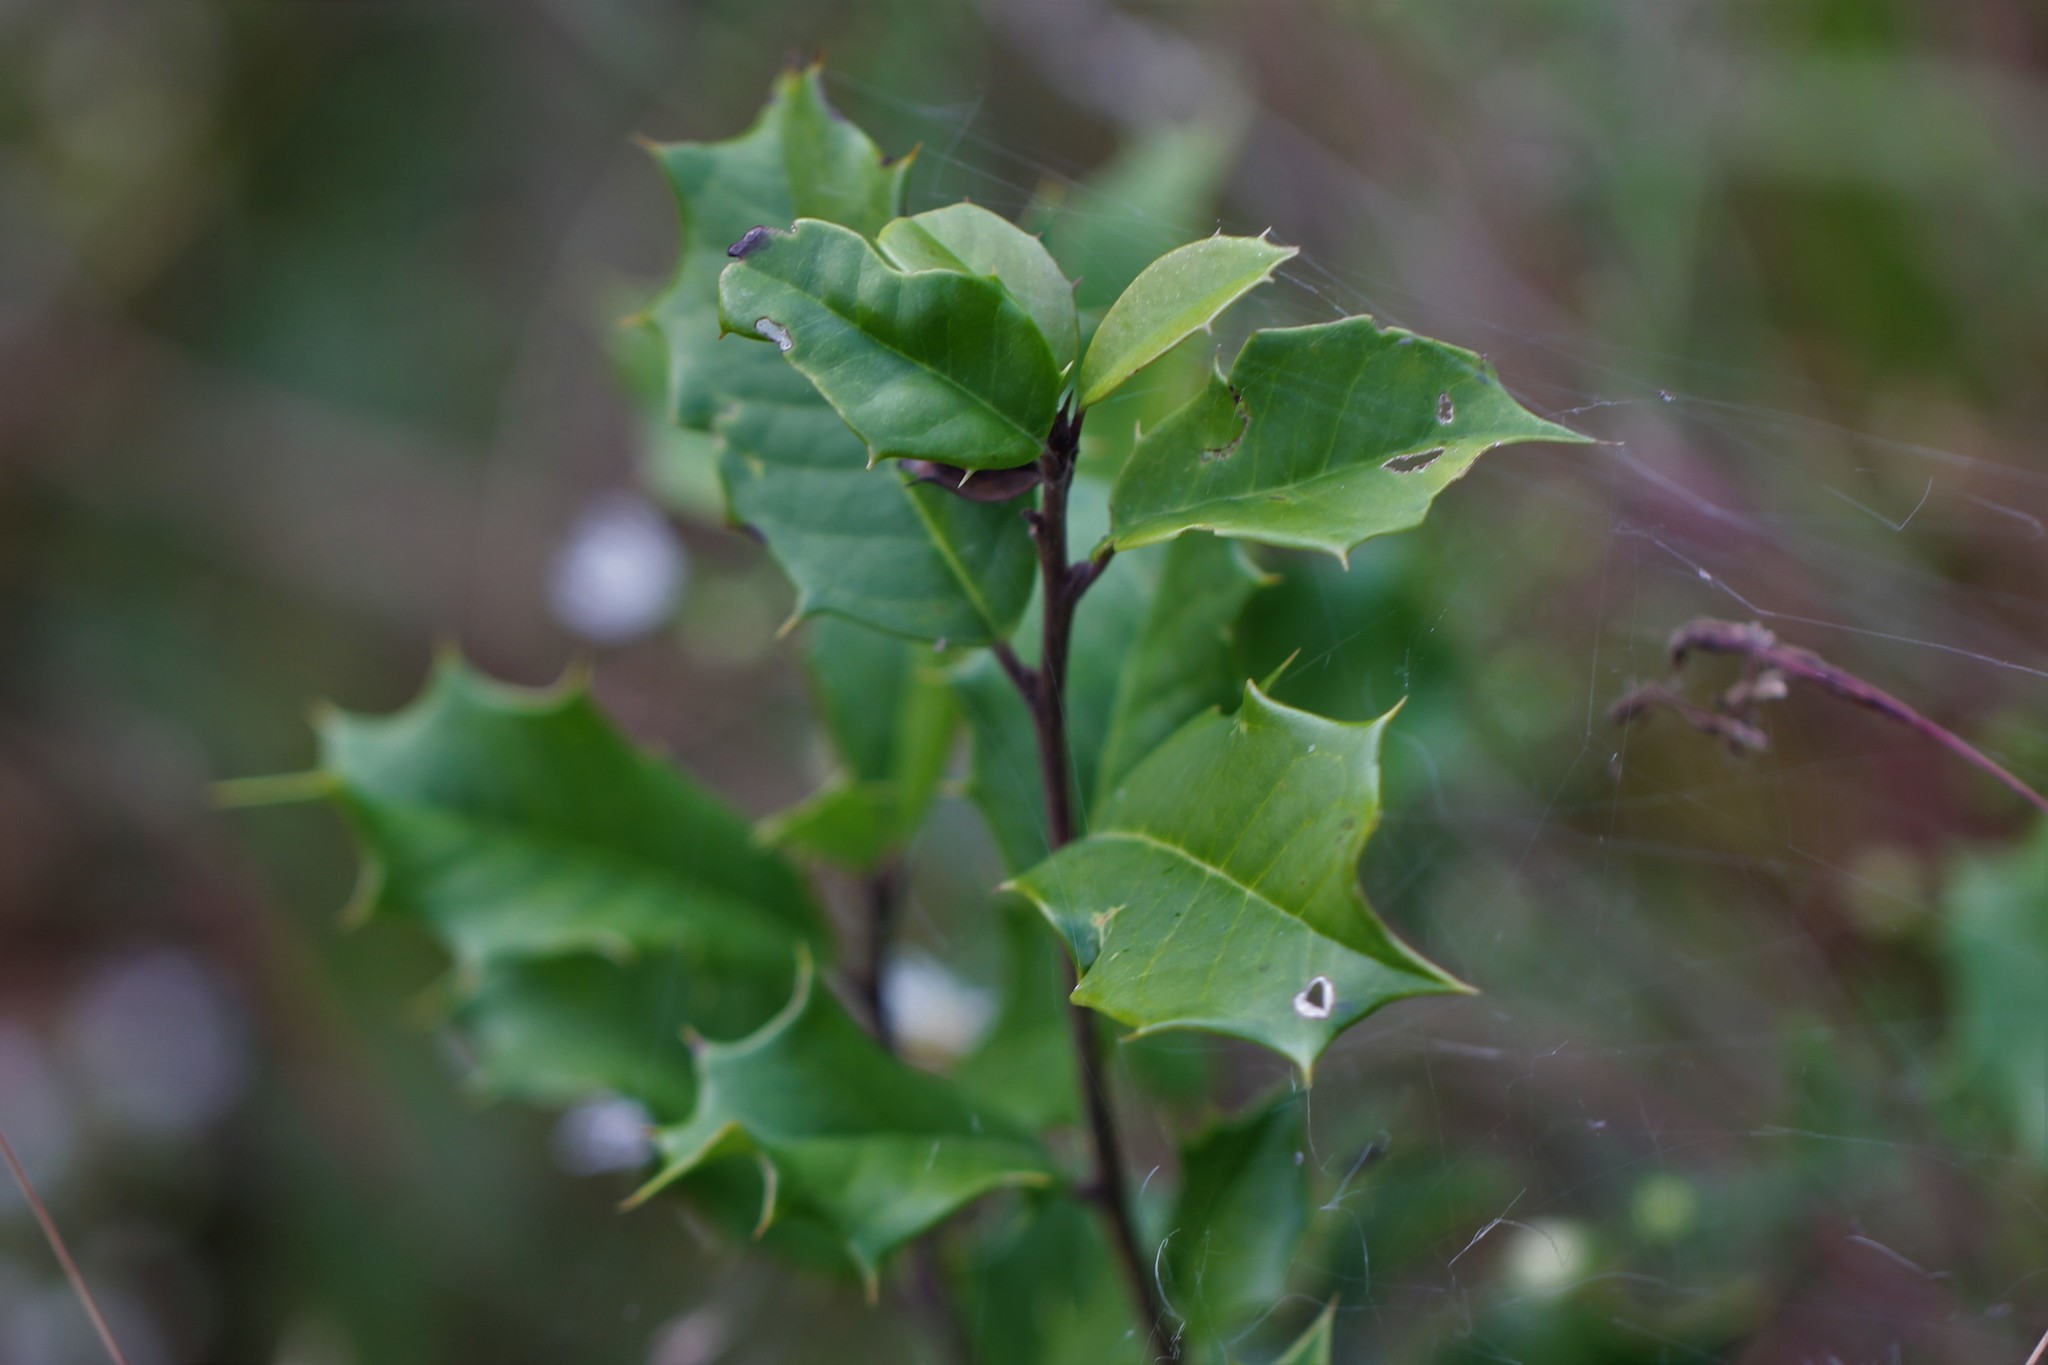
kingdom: Plantae
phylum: Tracheophyta
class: Magnoliopsida
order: Aquifoliales
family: Aquifoliaceae
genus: Ilex
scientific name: Ilex opaca
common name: American holly
